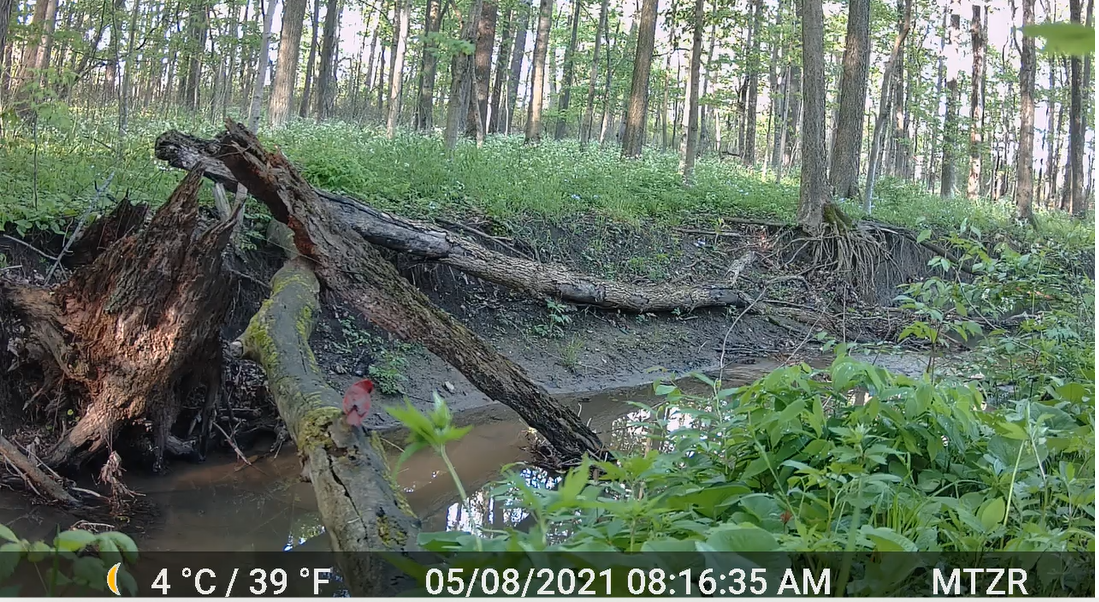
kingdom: Animalia
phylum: Chordata
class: Aves
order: Passeriformes
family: Cardinalidae
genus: Cardinalis
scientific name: Cardinalis cardinalis
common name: Northern cardinal
